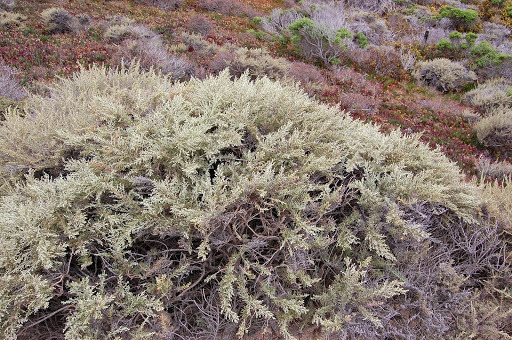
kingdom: Plantae
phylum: Tracheophyta
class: Magnoliopsida
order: Asterales
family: Asteraceae
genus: Artemisia
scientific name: Artemisia californica
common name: California sagebrush
